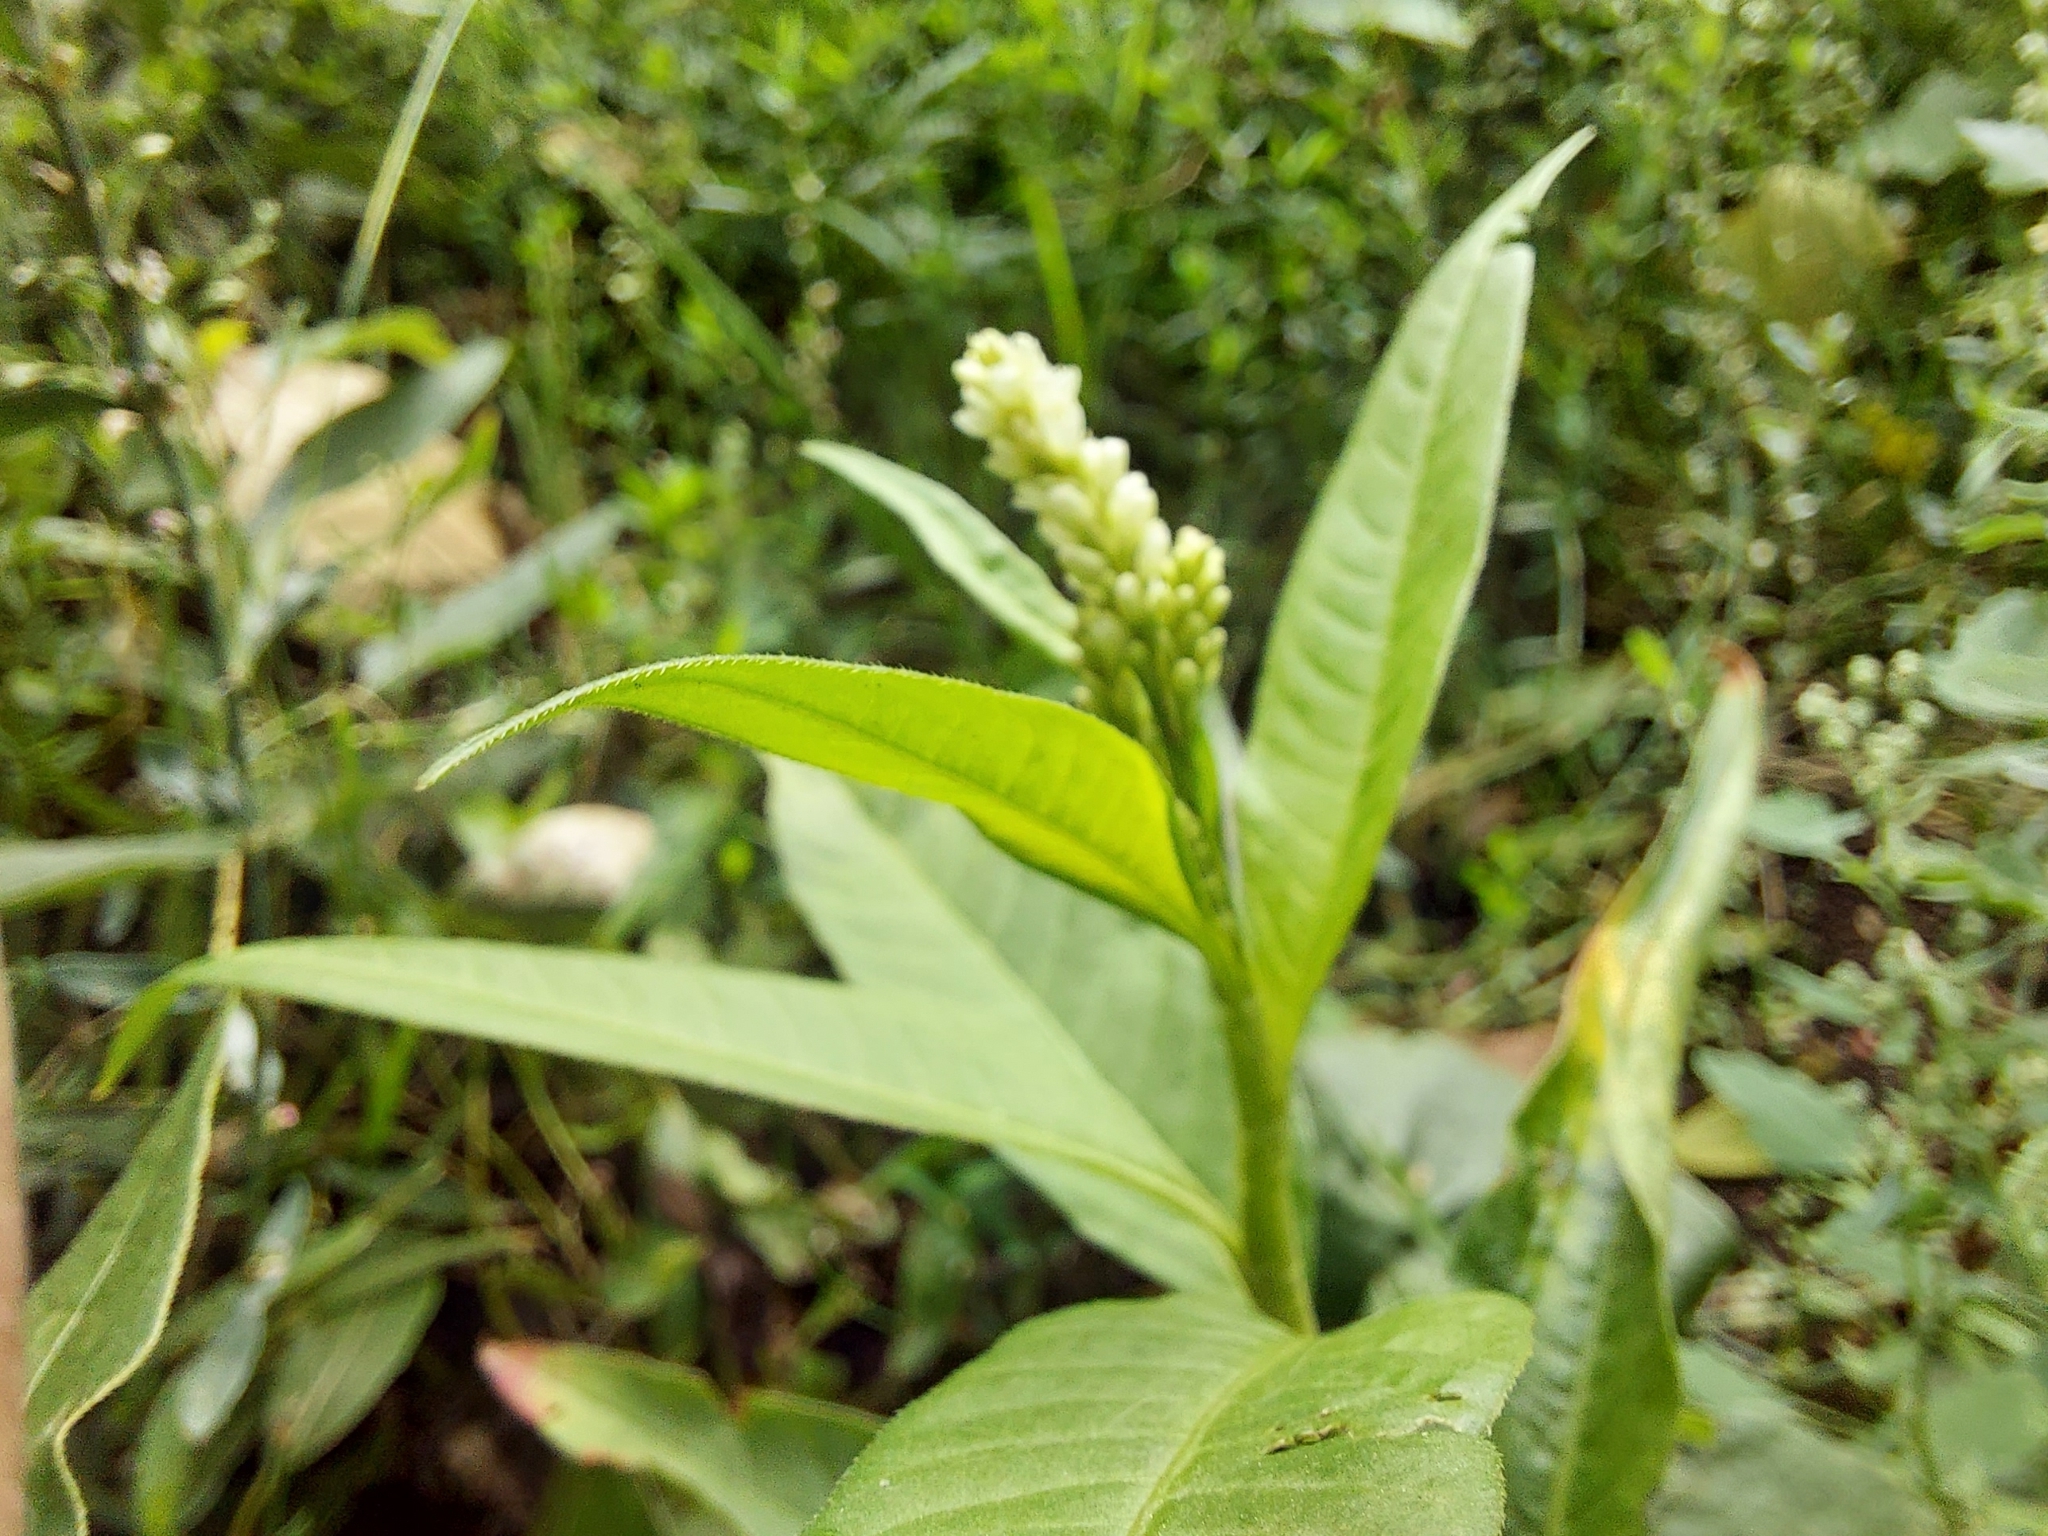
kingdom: Plantae
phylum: Tracheophyta
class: Magnoliopsida
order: Caryophyllales
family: Polygonaceae
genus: Persicaria
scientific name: Persicaria lapathifolia
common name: Curlytop knotweed
